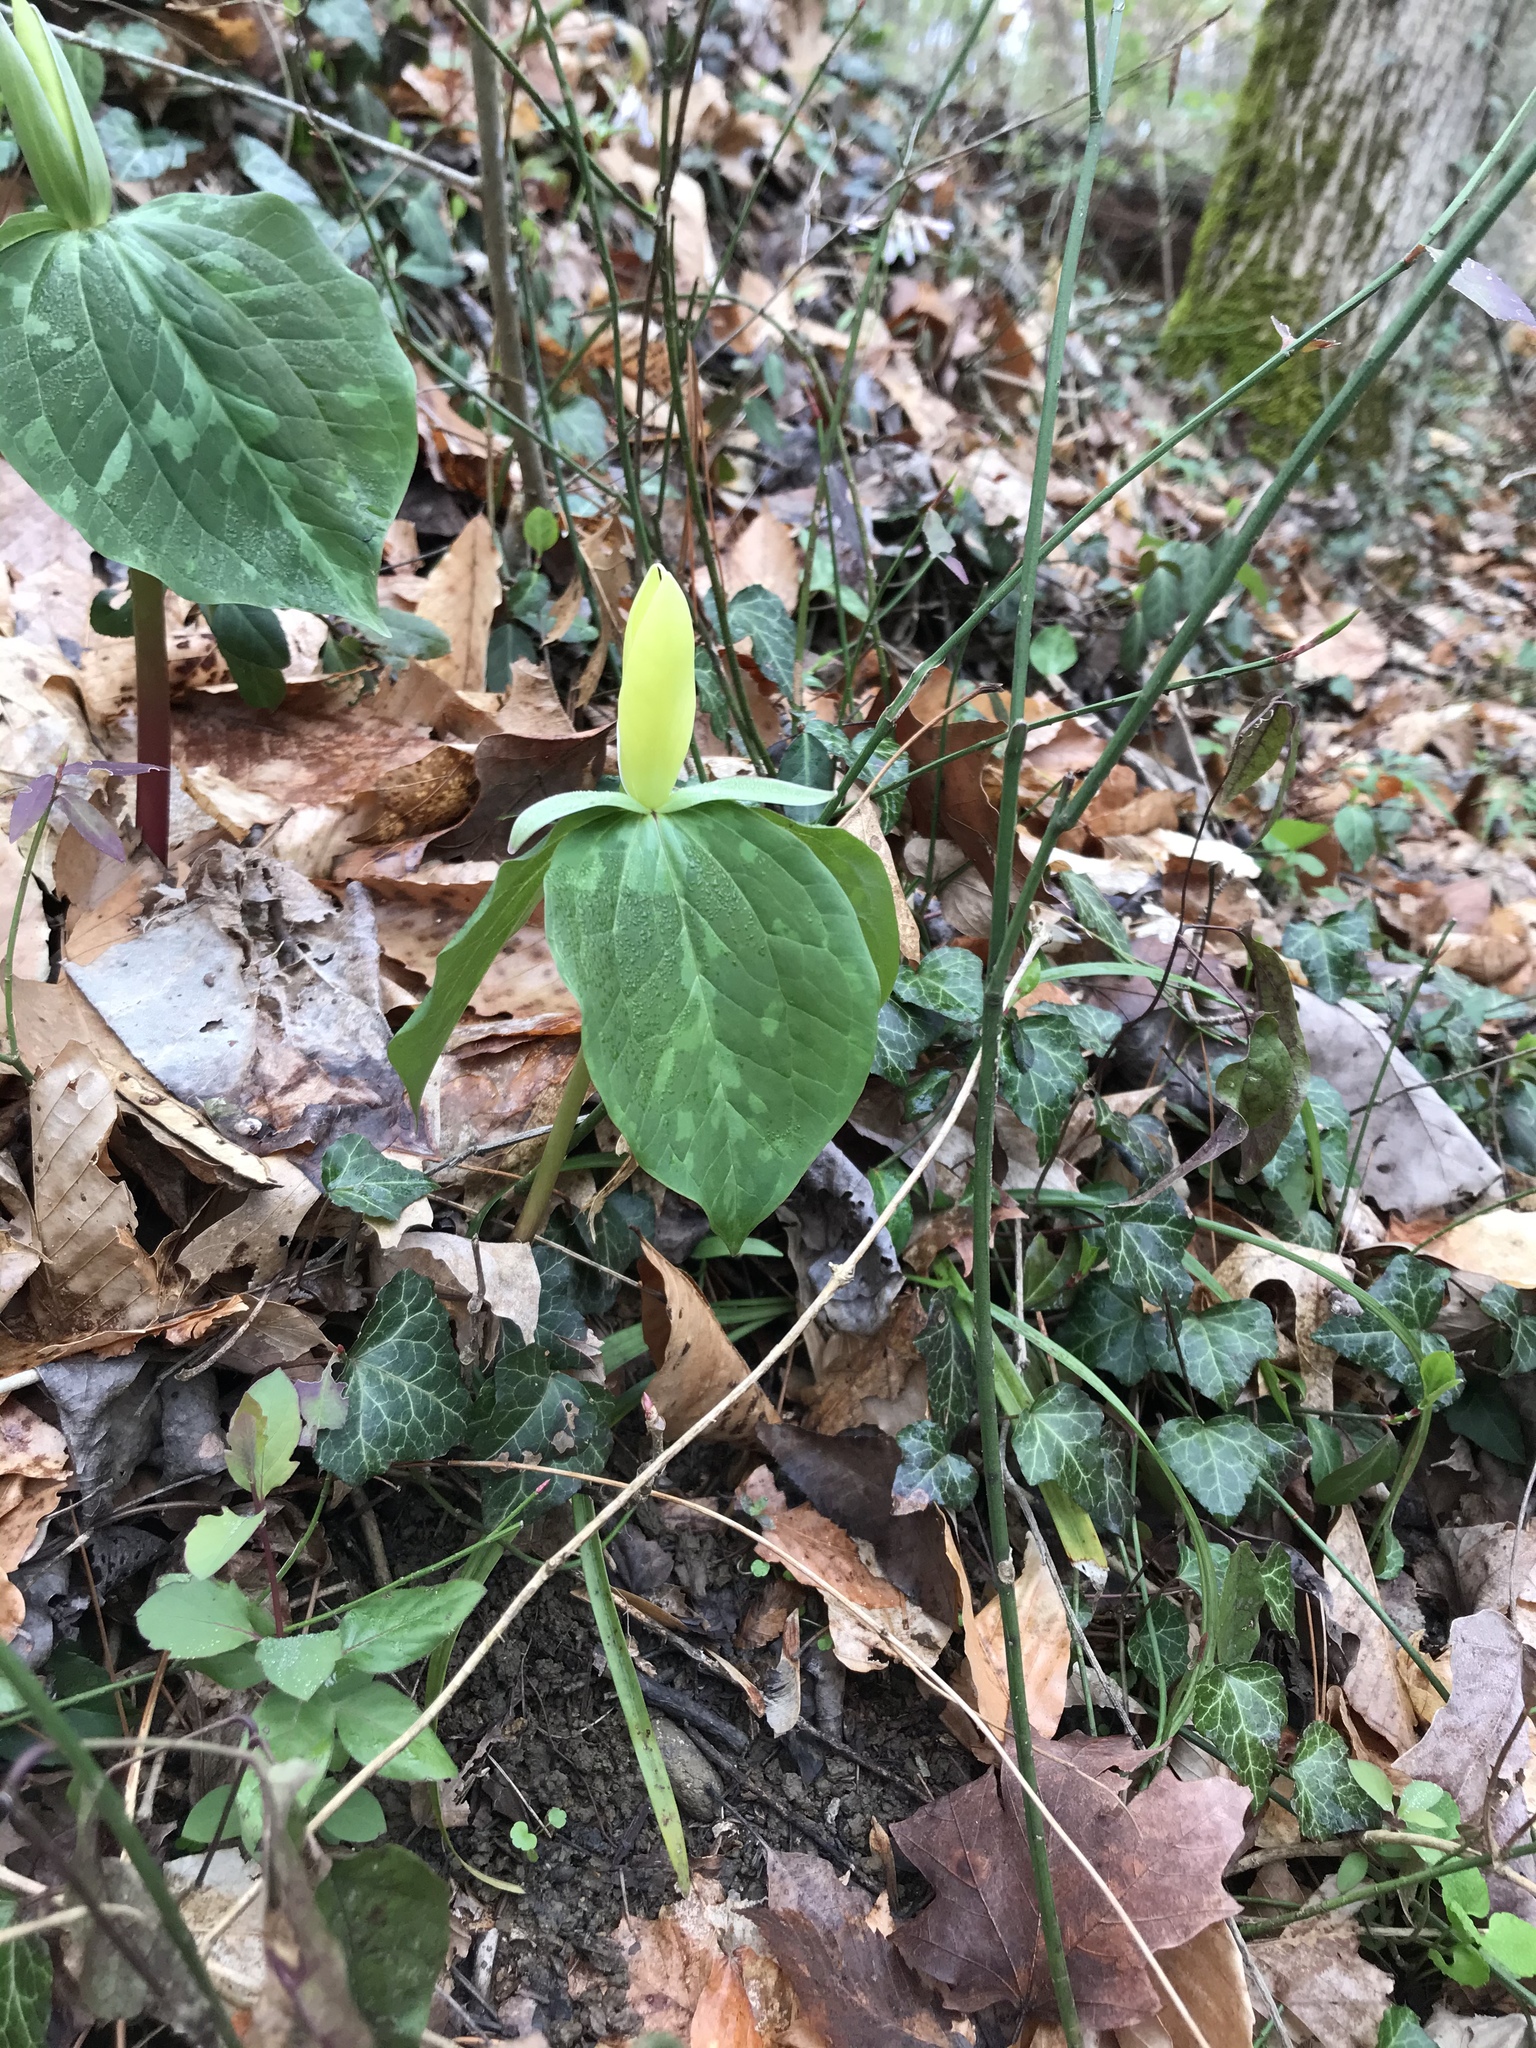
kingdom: Plantae
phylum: Tracheophyta
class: Liliopsida
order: Liliales
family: Melanthiaceae
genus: Trillium
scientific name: Trillium luteum
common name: Wax trillium
